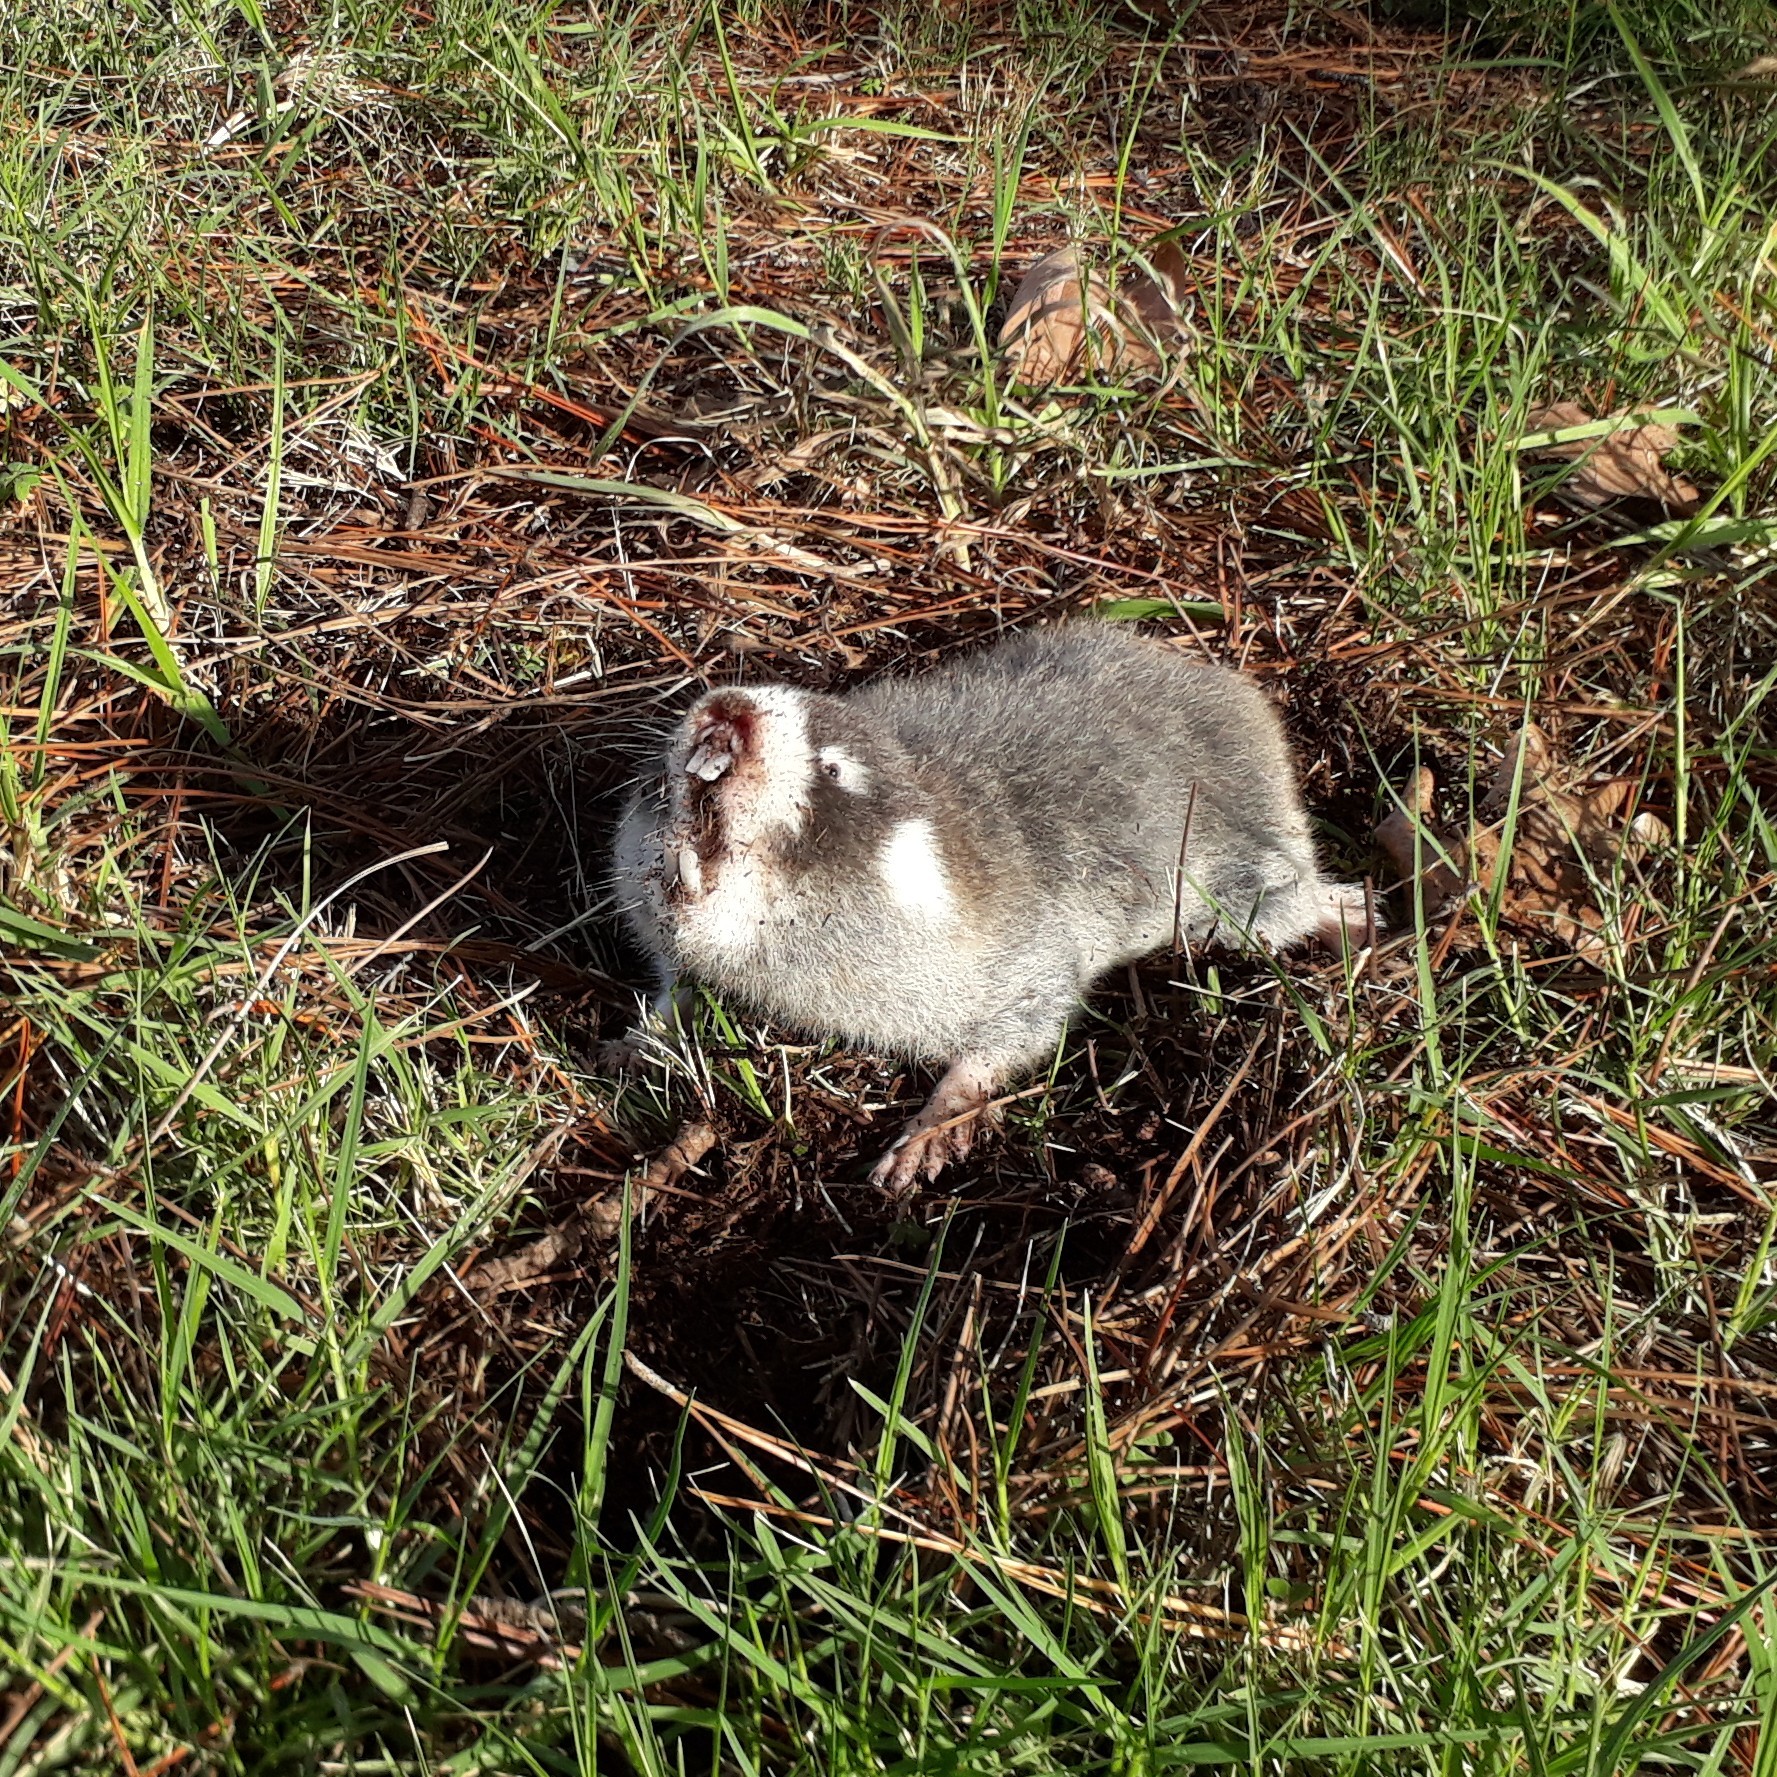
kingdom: Animalia
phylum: Chordata
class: Mammalia
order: Rodentia
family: Bathyergidae
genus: Georychus
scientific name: Georychus capensis
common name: Cape mole-rat
